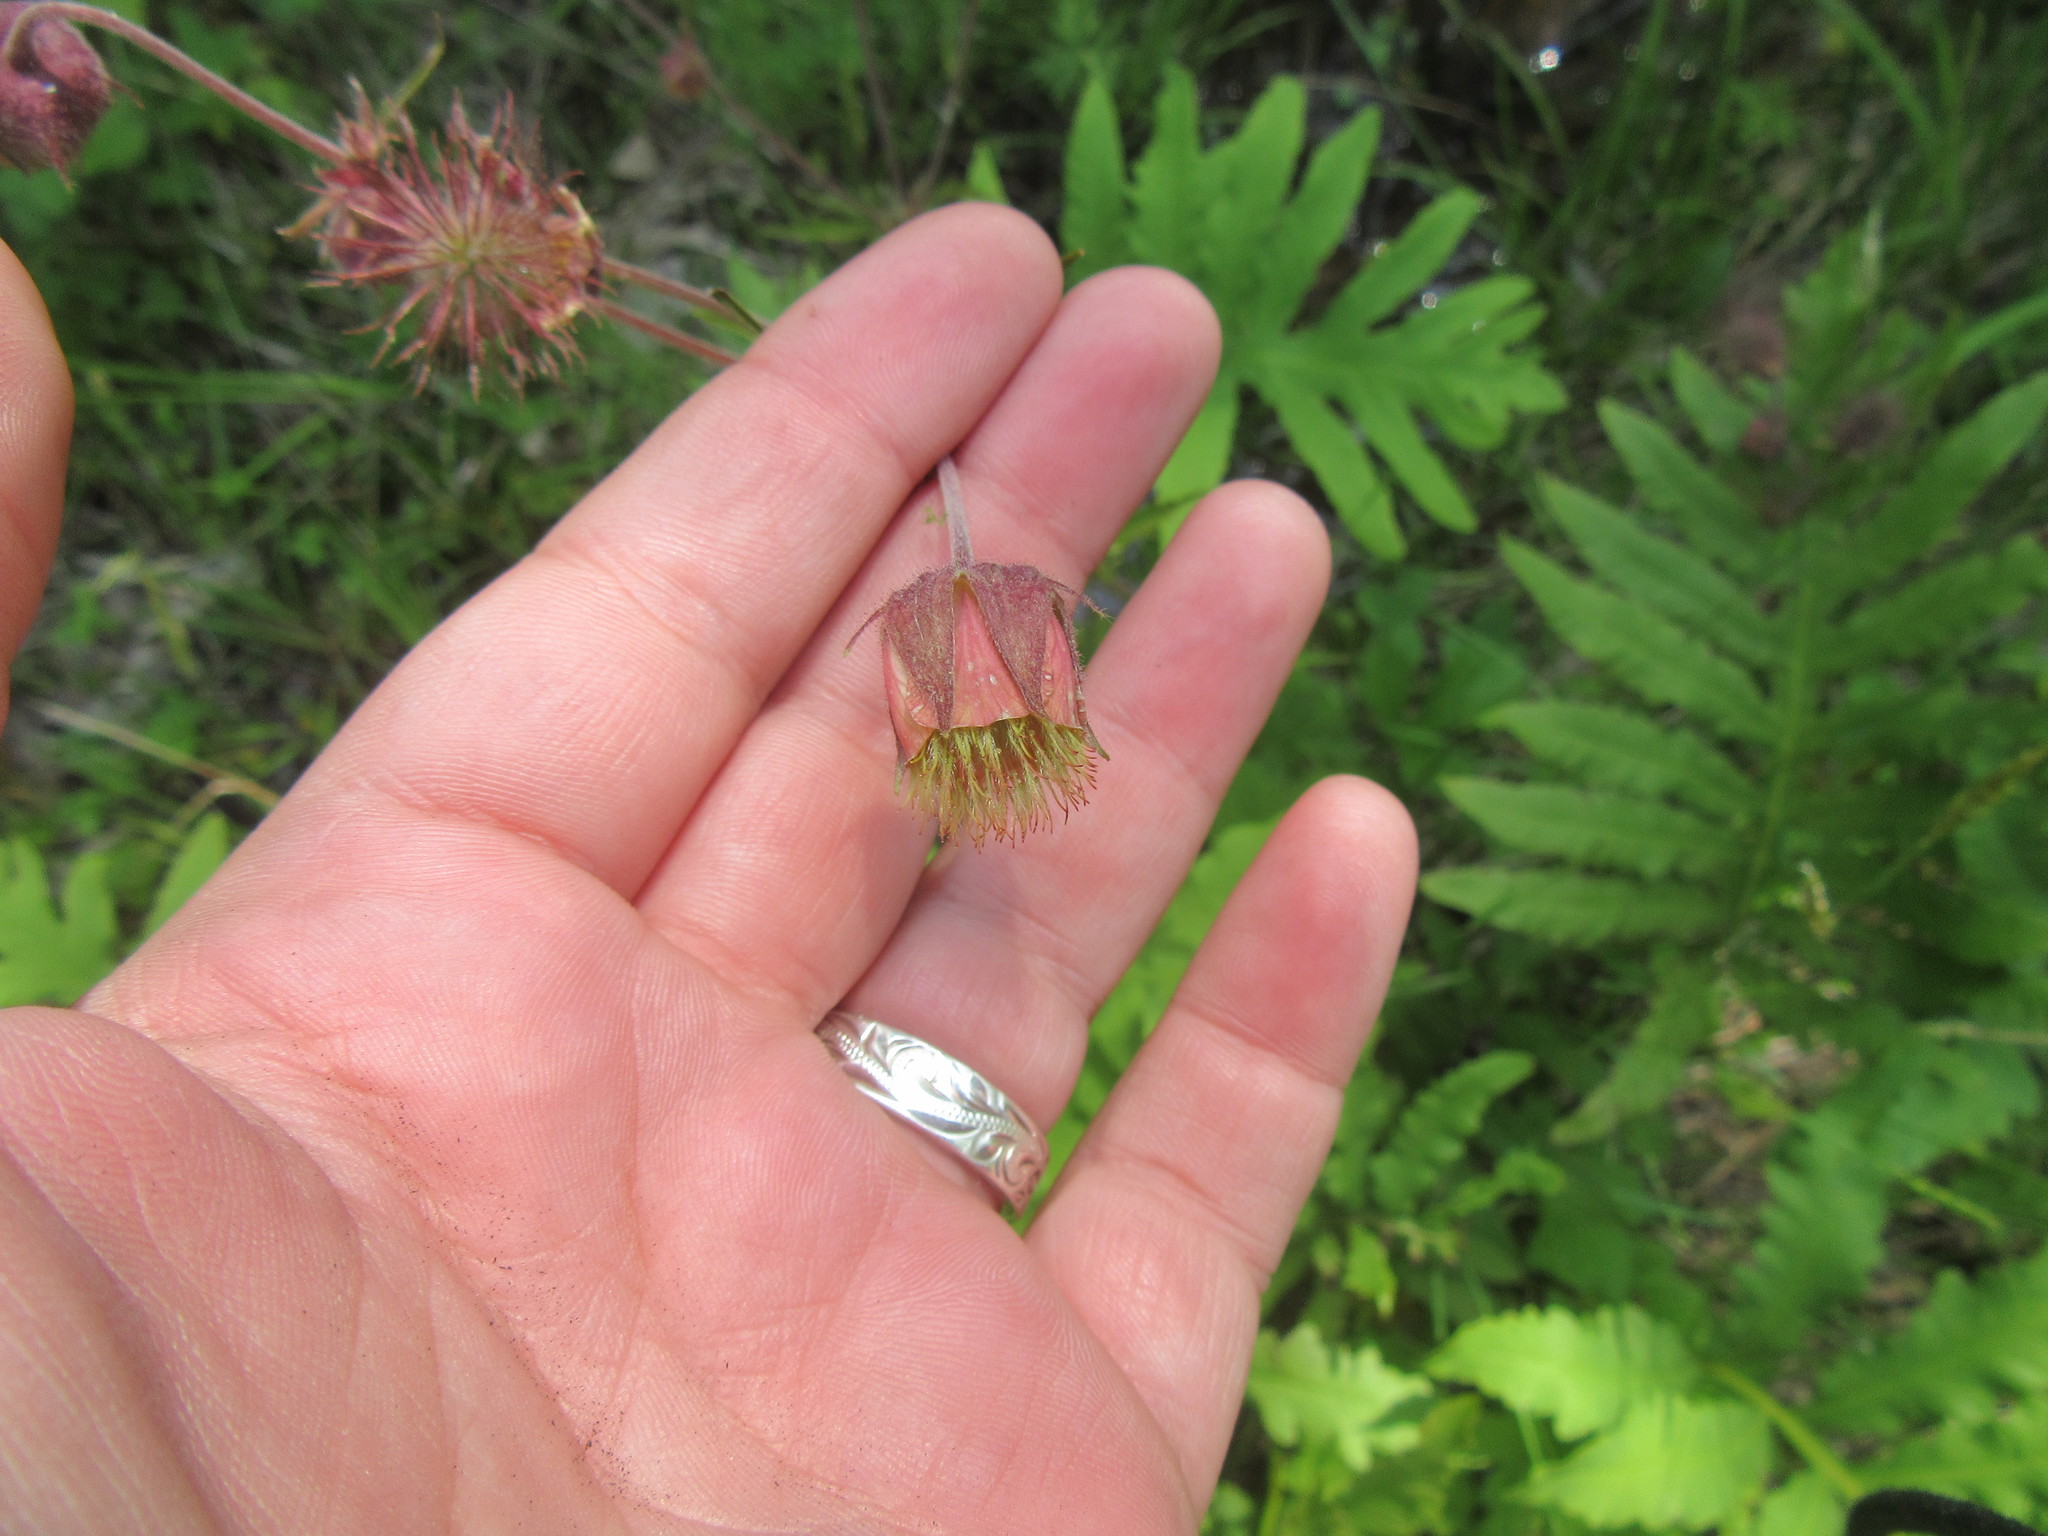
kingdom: Plantae
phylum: Tracheophyta
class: Magnoliopsida
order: Rosales
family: Rosaceae
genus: Geum
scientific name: Geum rivale
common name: Water avens
